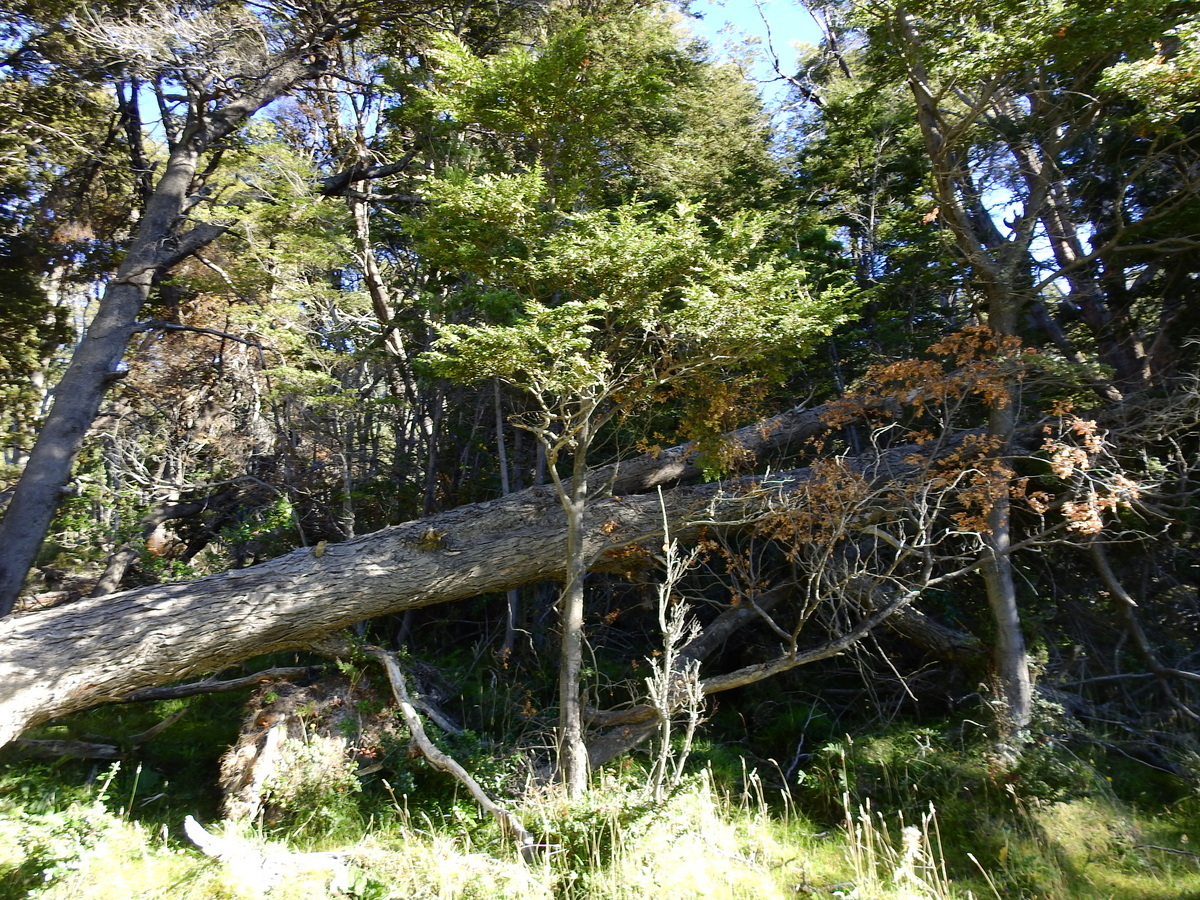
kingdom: Plantae
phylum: Tracheophyta
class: Magnoliopsida
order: Fagales
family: Nothofagaceae
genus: Nothofagus
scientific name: Nothofagus dombeyi
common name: Coigue
